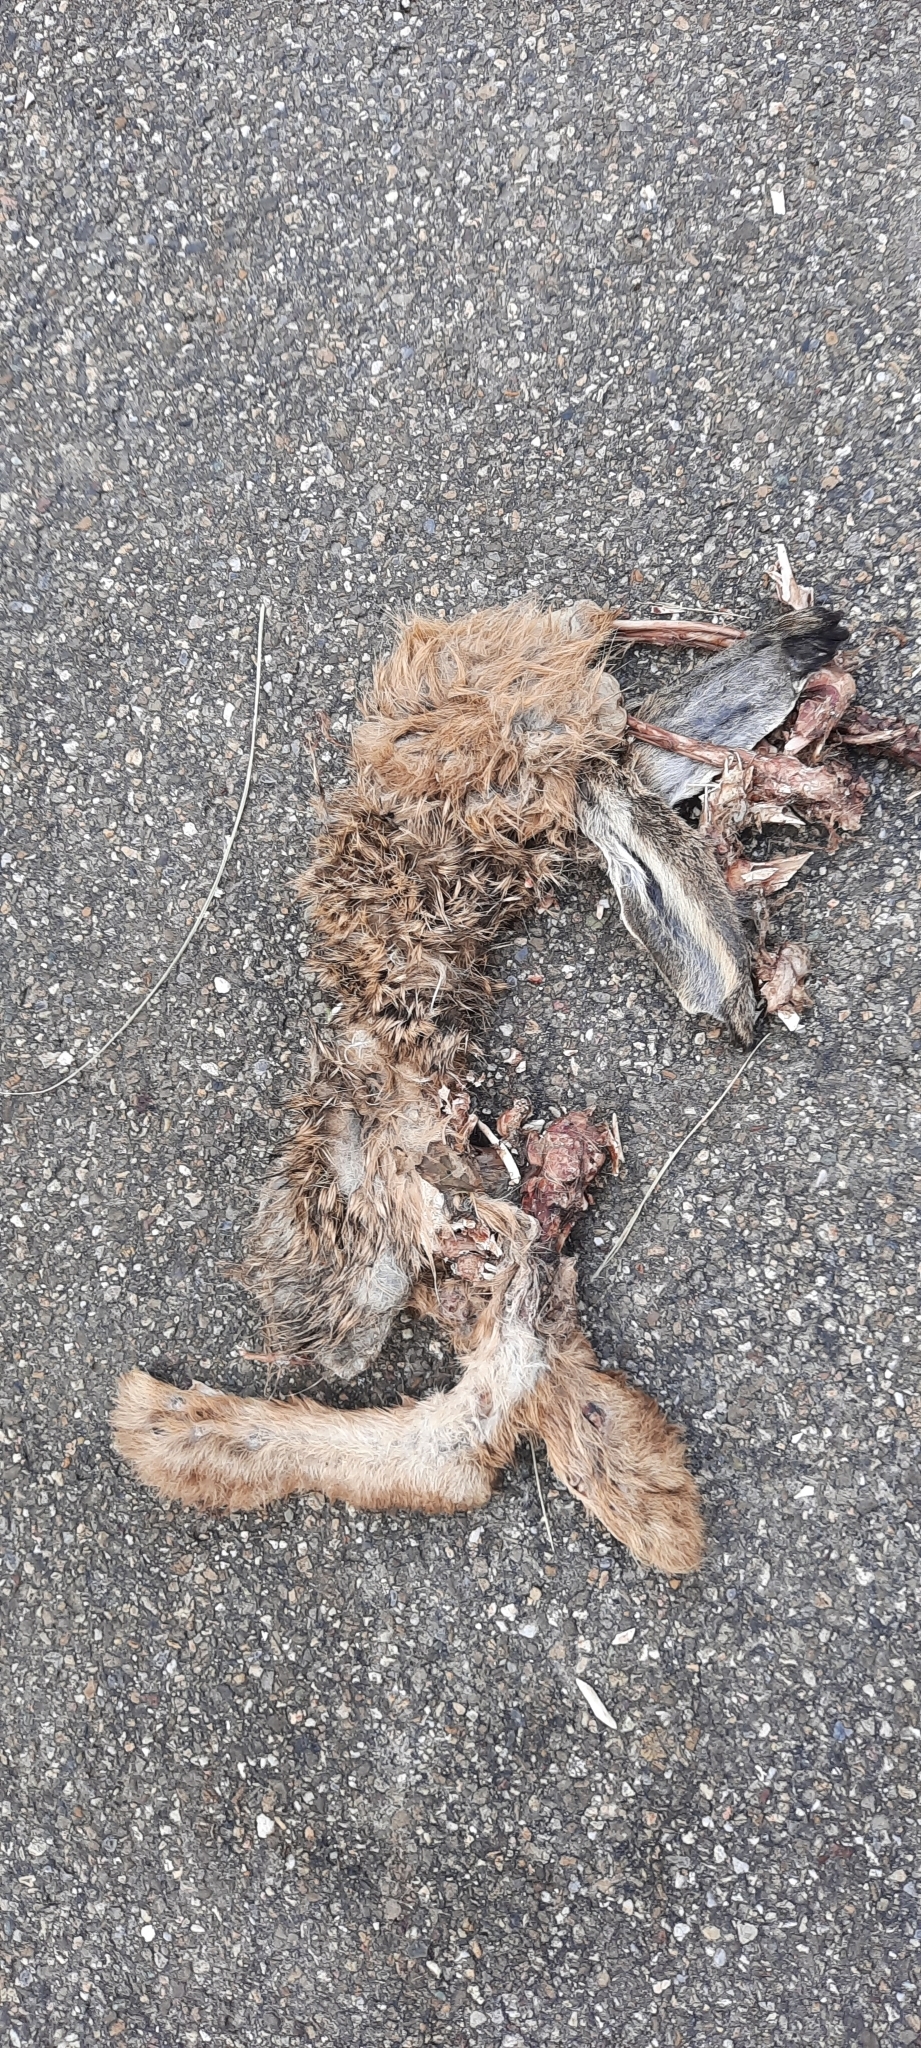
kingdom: Animalia
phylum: Chordata
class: Mammalia
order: Lagomorpha
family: Leporidae
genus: Lepus
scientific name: Lepus europaeus
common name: European hare
